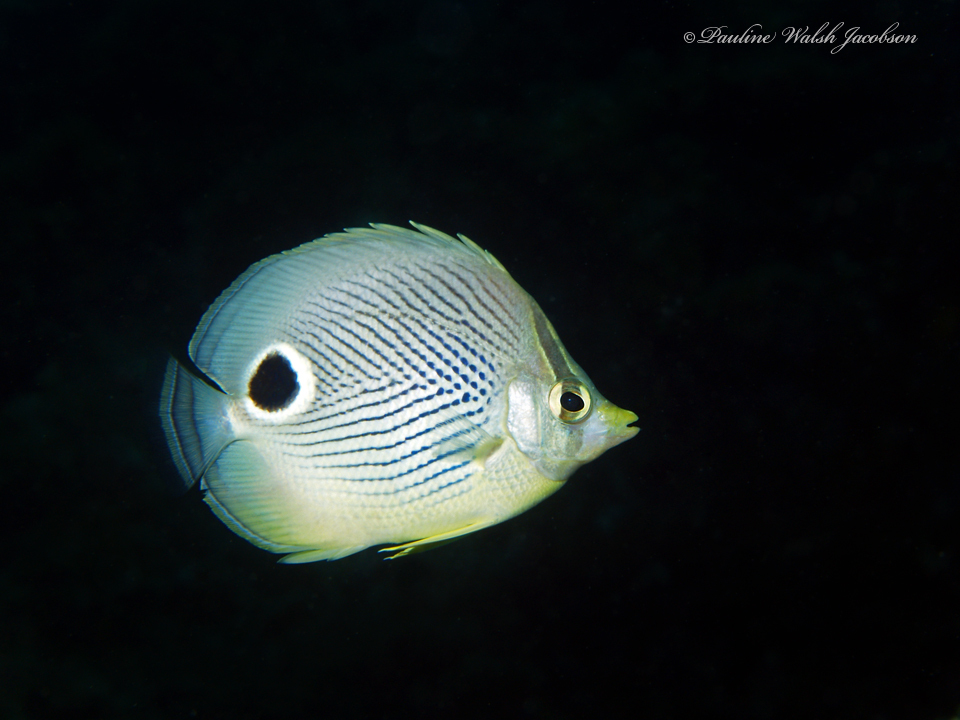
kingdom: Animalia
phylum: Chordata
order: Perciformes
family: Chaetodontidae
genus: Chaetodon
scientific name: Chaetodon capistratus
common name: Kete
